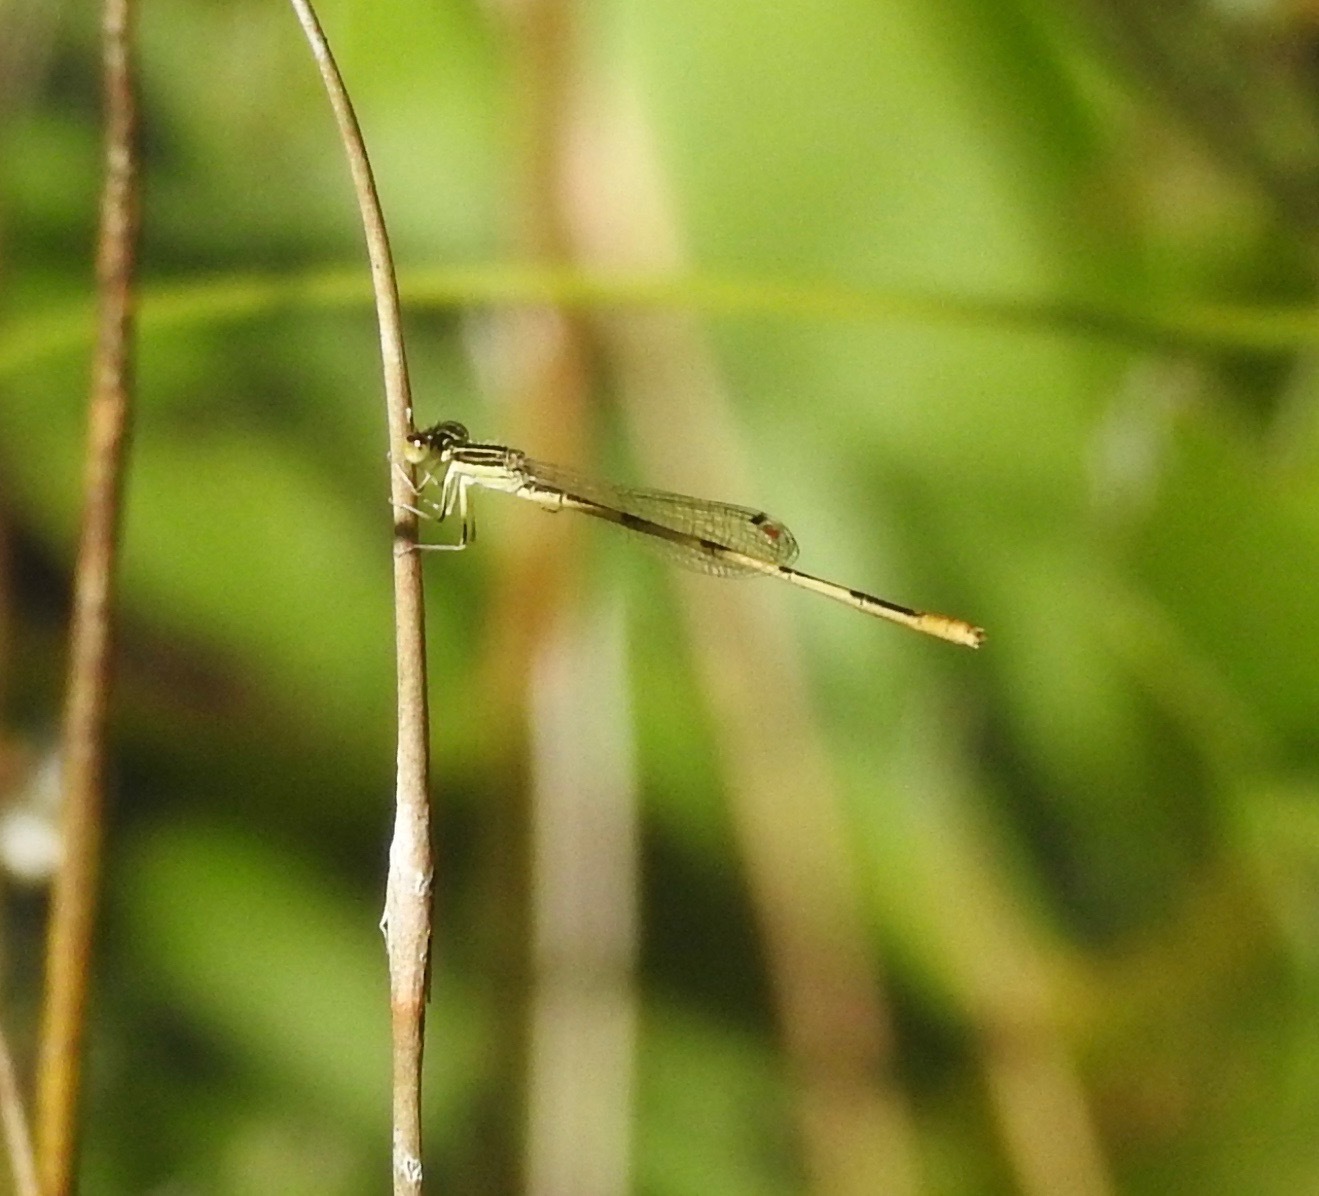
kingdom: Animalia
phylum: Arthropoda
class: Insecta
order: Odonata
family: Coenagrionidae
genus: Ischnura
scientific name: Ischnura hastata
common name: Citrine forktail
